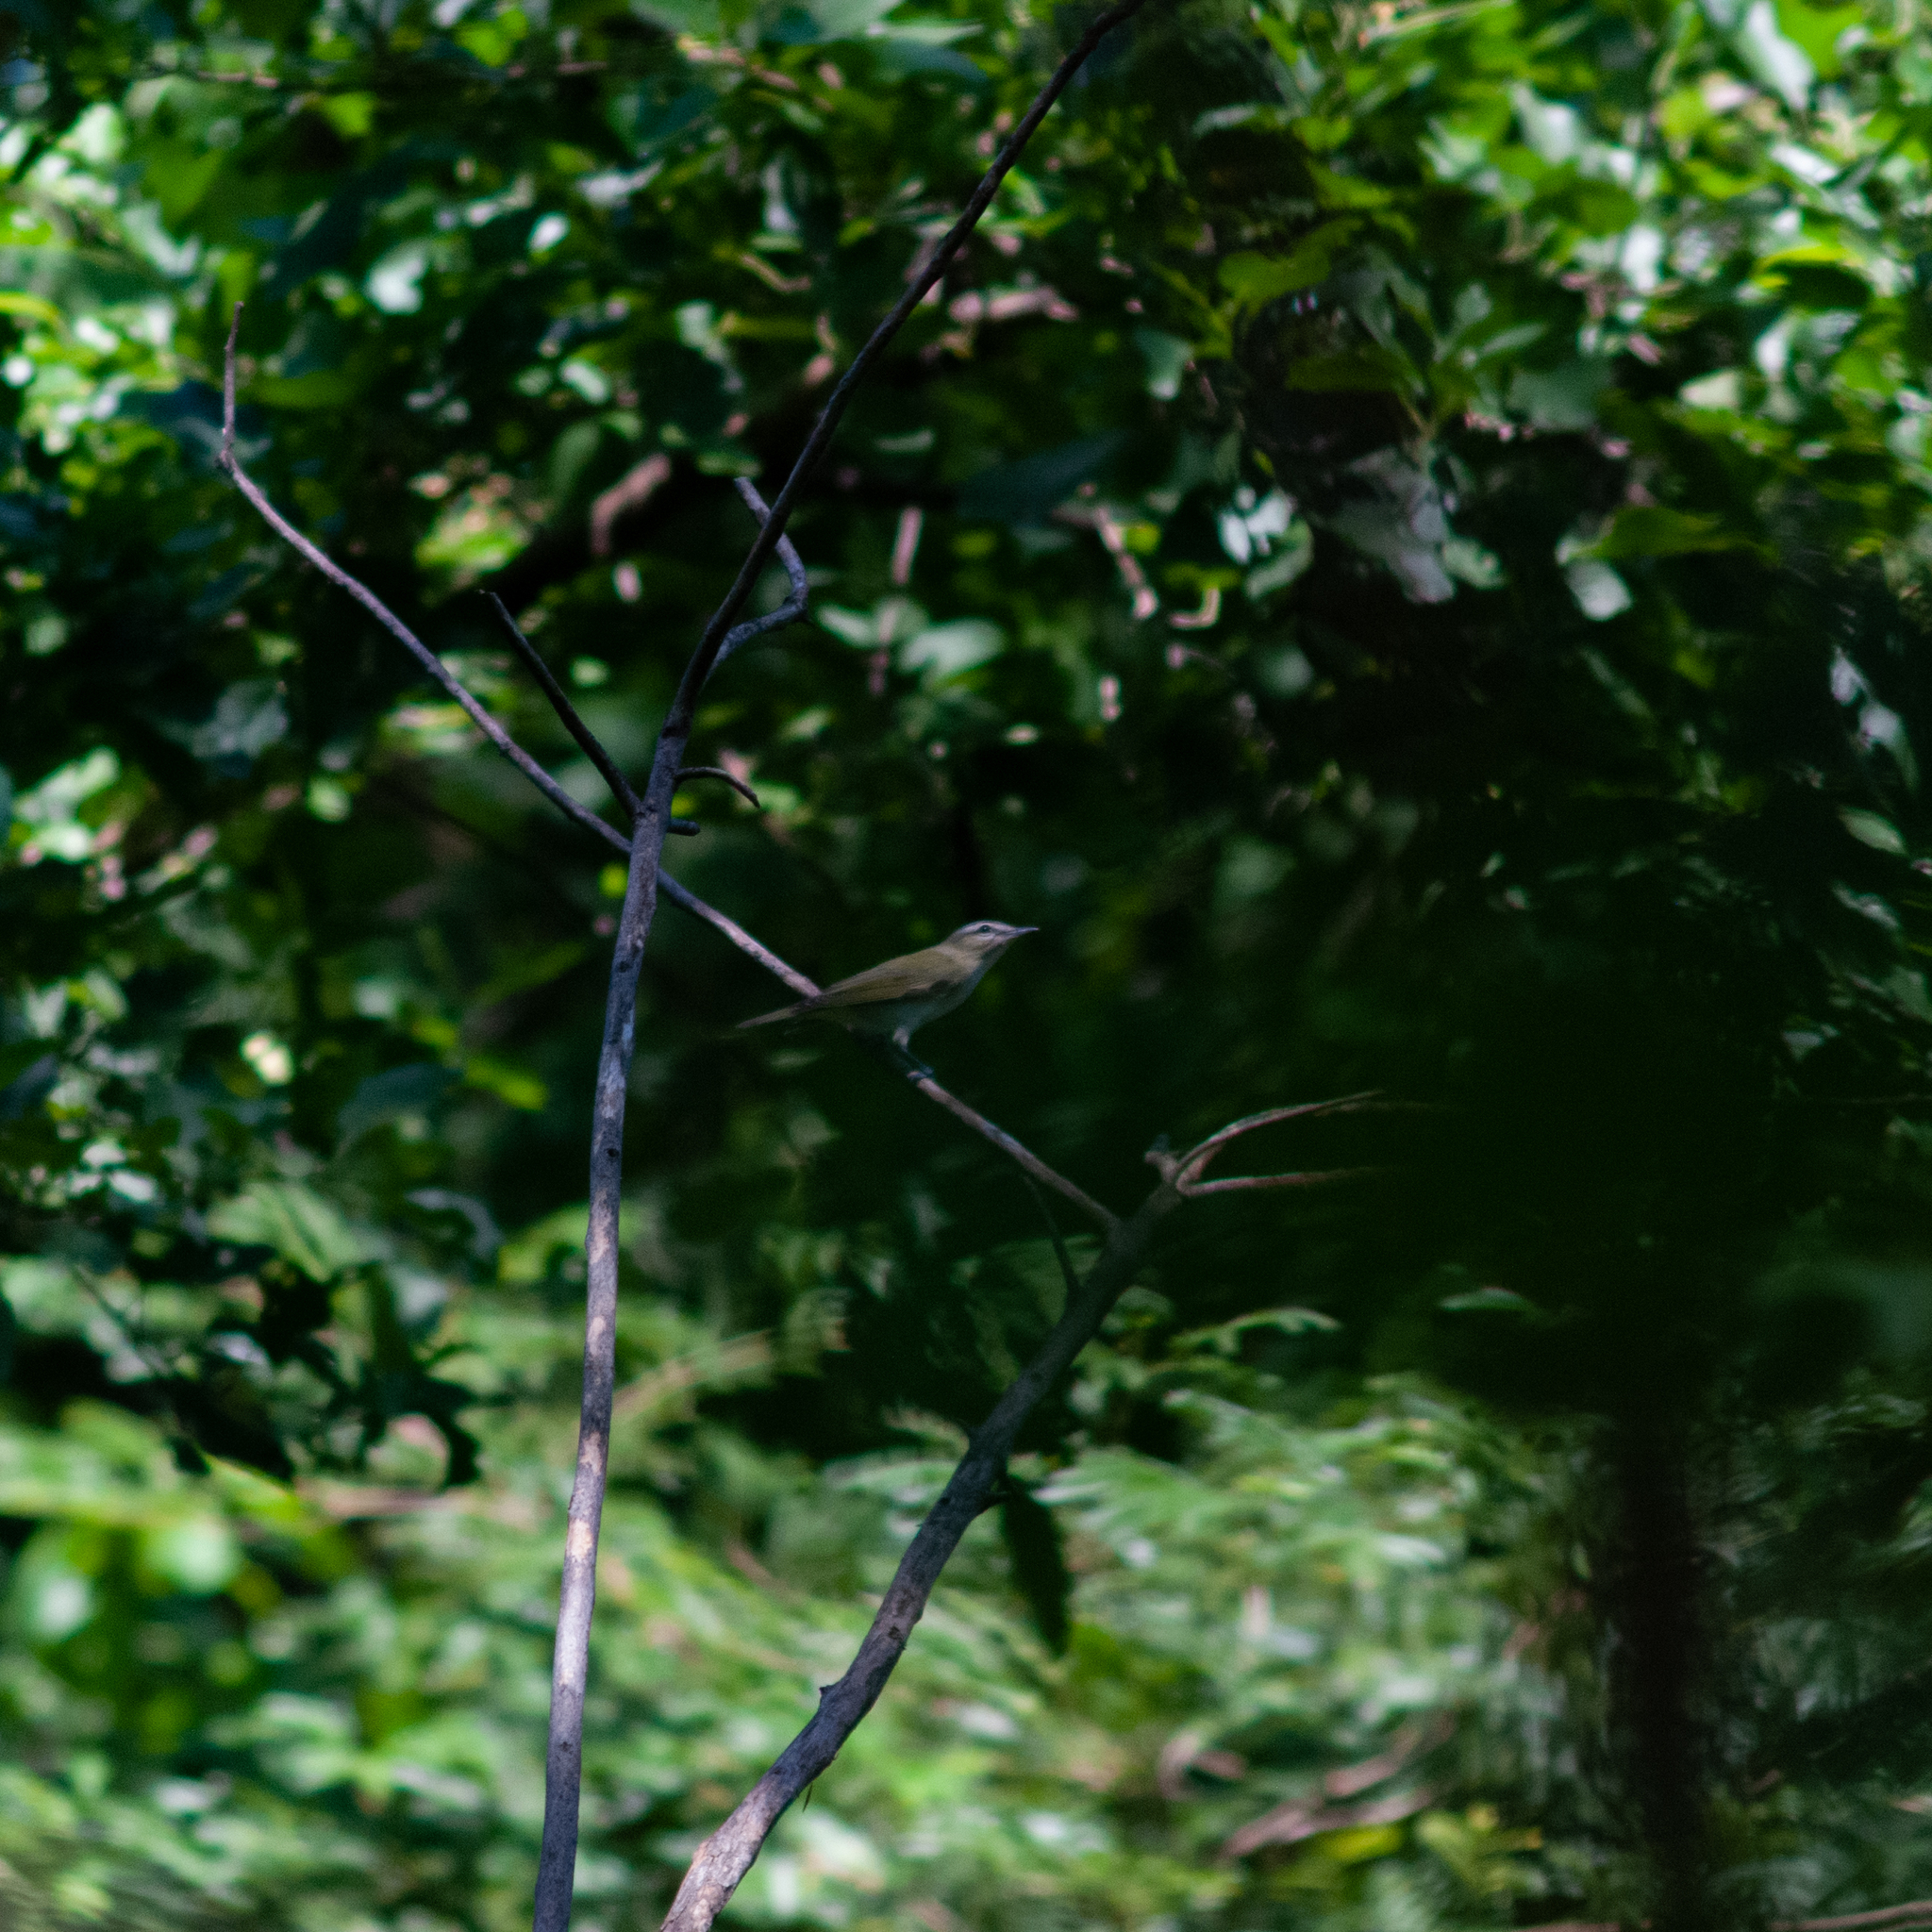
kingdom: Animalia
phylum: Chordata
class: Aves
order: Passeriformes
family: Vireonidae
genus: Vireo
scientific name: Vireo olivaceus
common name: Red-eyed vireo
